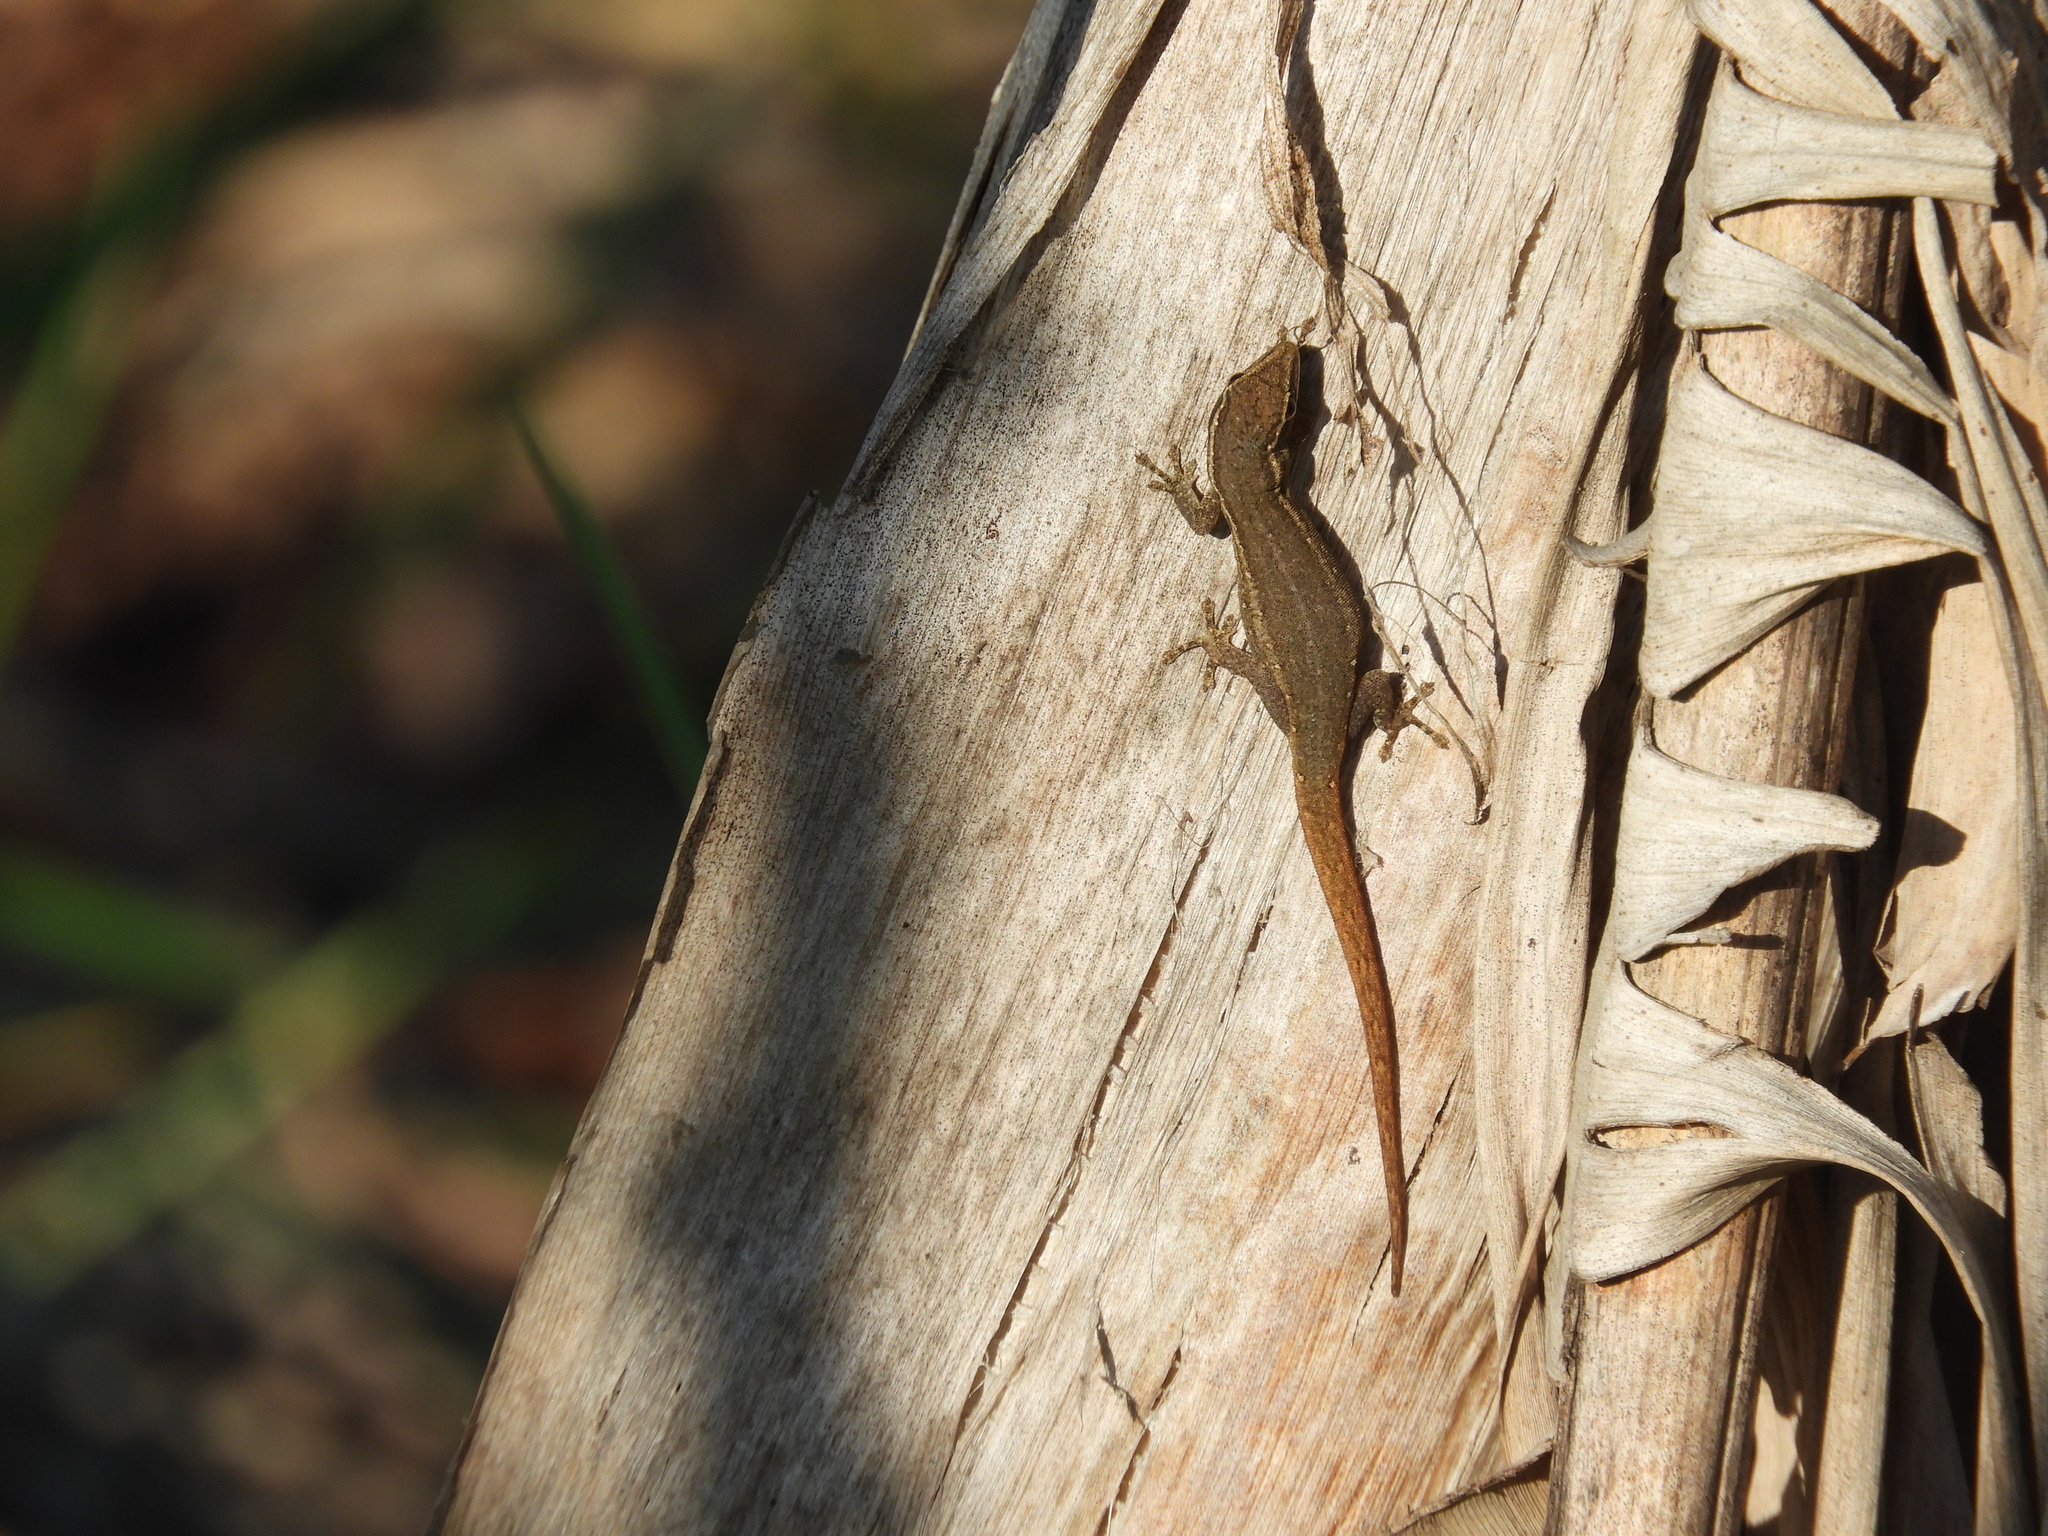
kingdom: Animalia
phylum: Chordata
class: Squamata
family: Gekkonidae
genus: Lygodactylus
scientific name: Lygodactylus capensis
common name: Cape dwarf gecko
